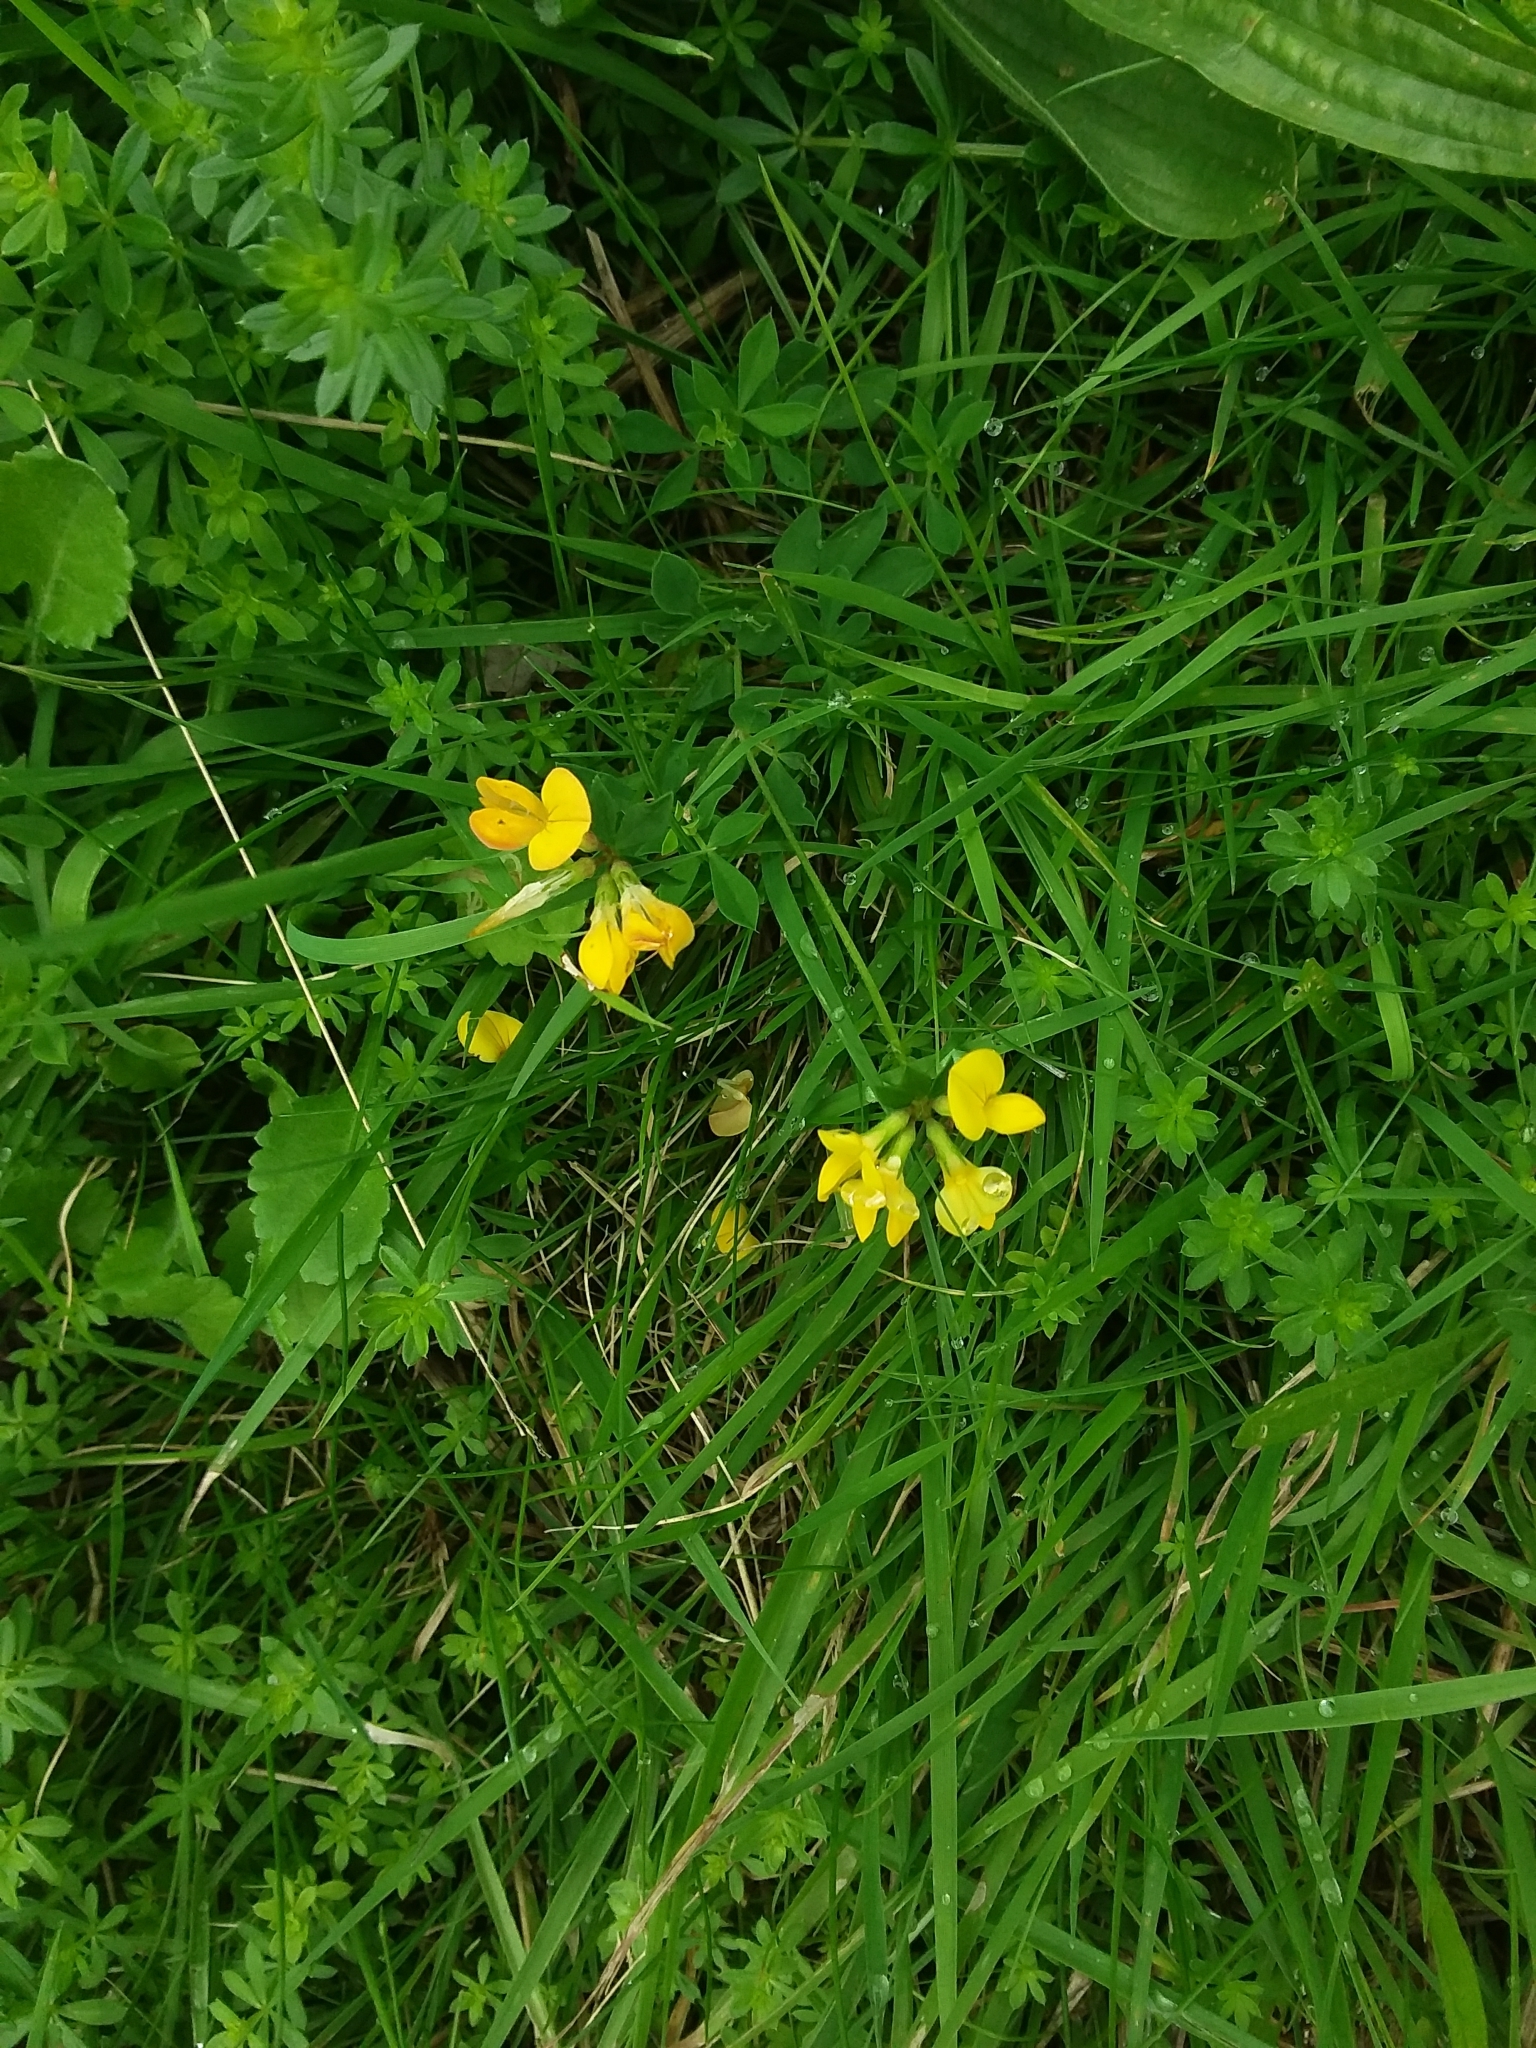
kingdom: Plantae
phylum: Tracheophyta
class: Magnoliopsida
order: Fabales
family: Fabaceae
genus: Lotus
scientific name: Lotus corniculatus
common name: Common bird's-foot-trefoil
